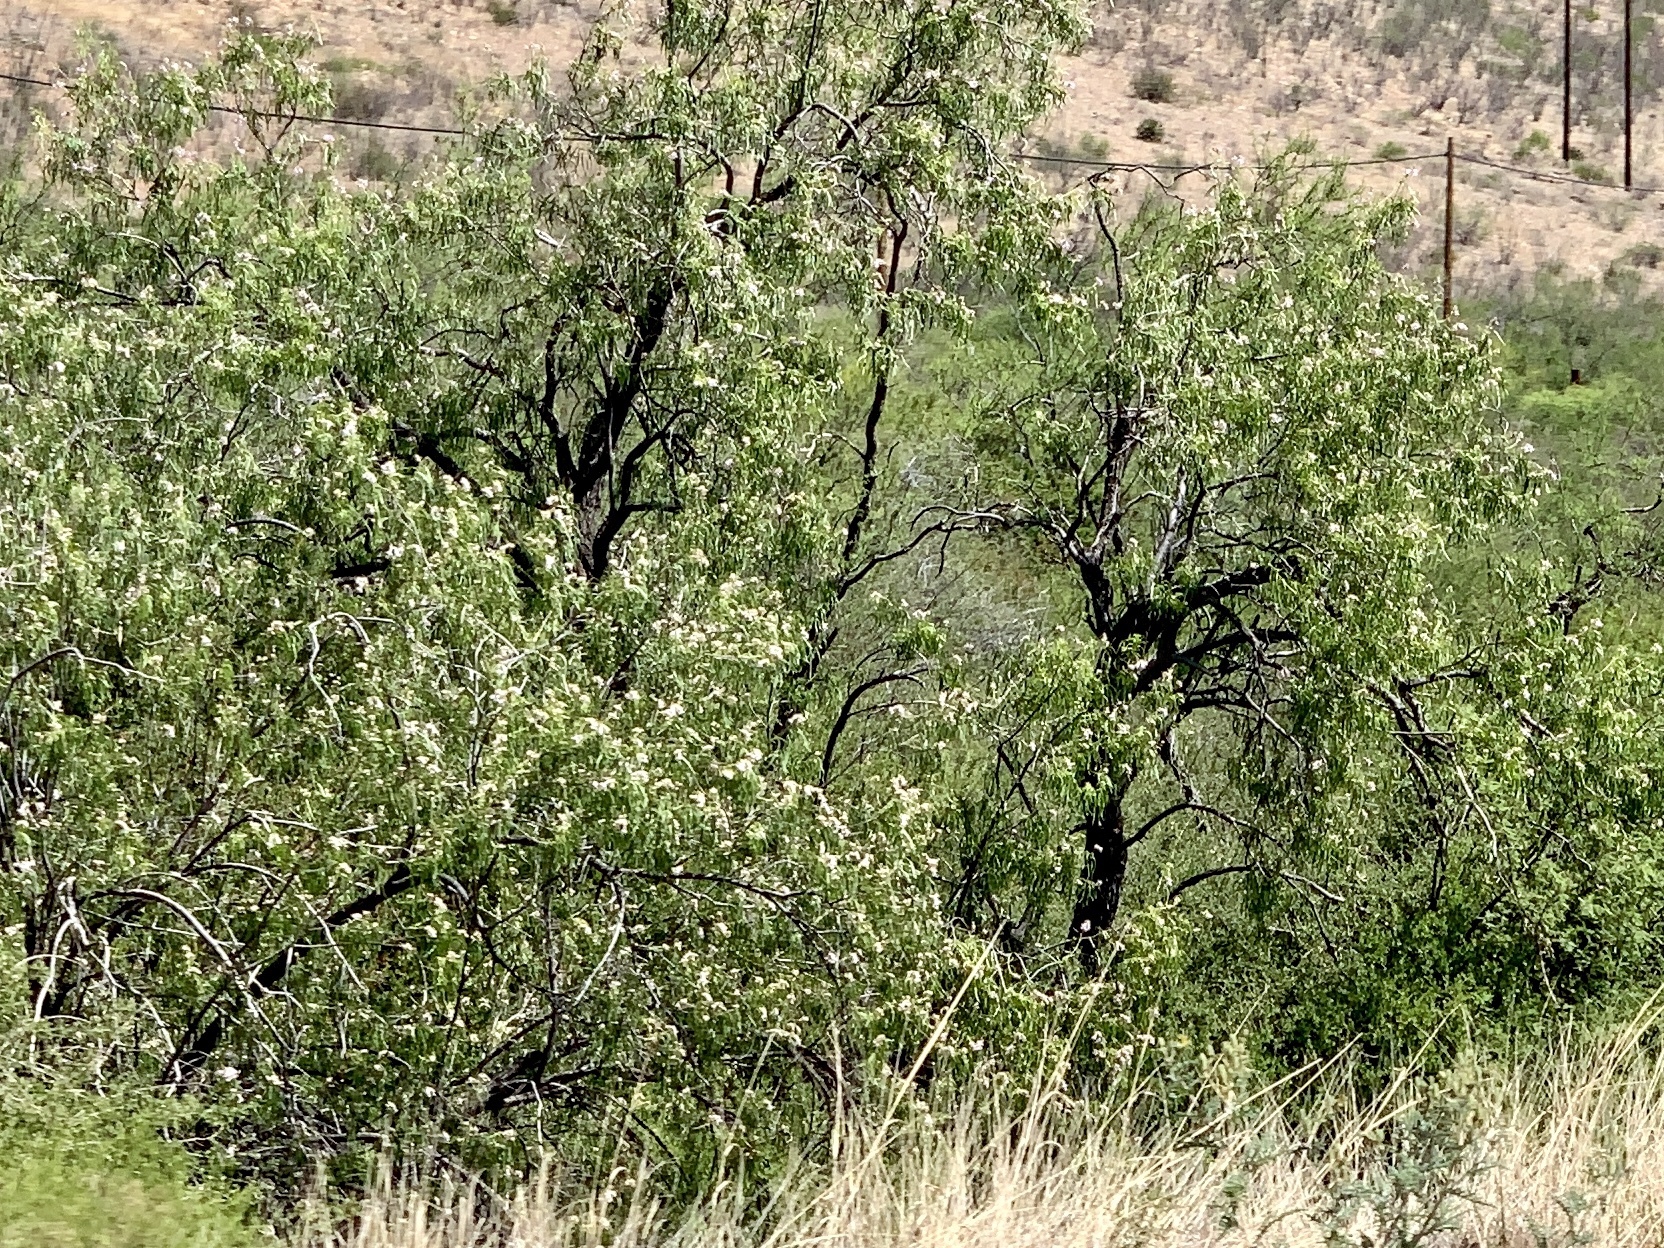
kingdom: Plantae
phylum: Tracheophyta
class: Magnoliopsida
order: Lamiales
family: Bignoniaceae
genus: Chilopsis
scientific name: Chilopsis linearis
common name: Desert-willow
